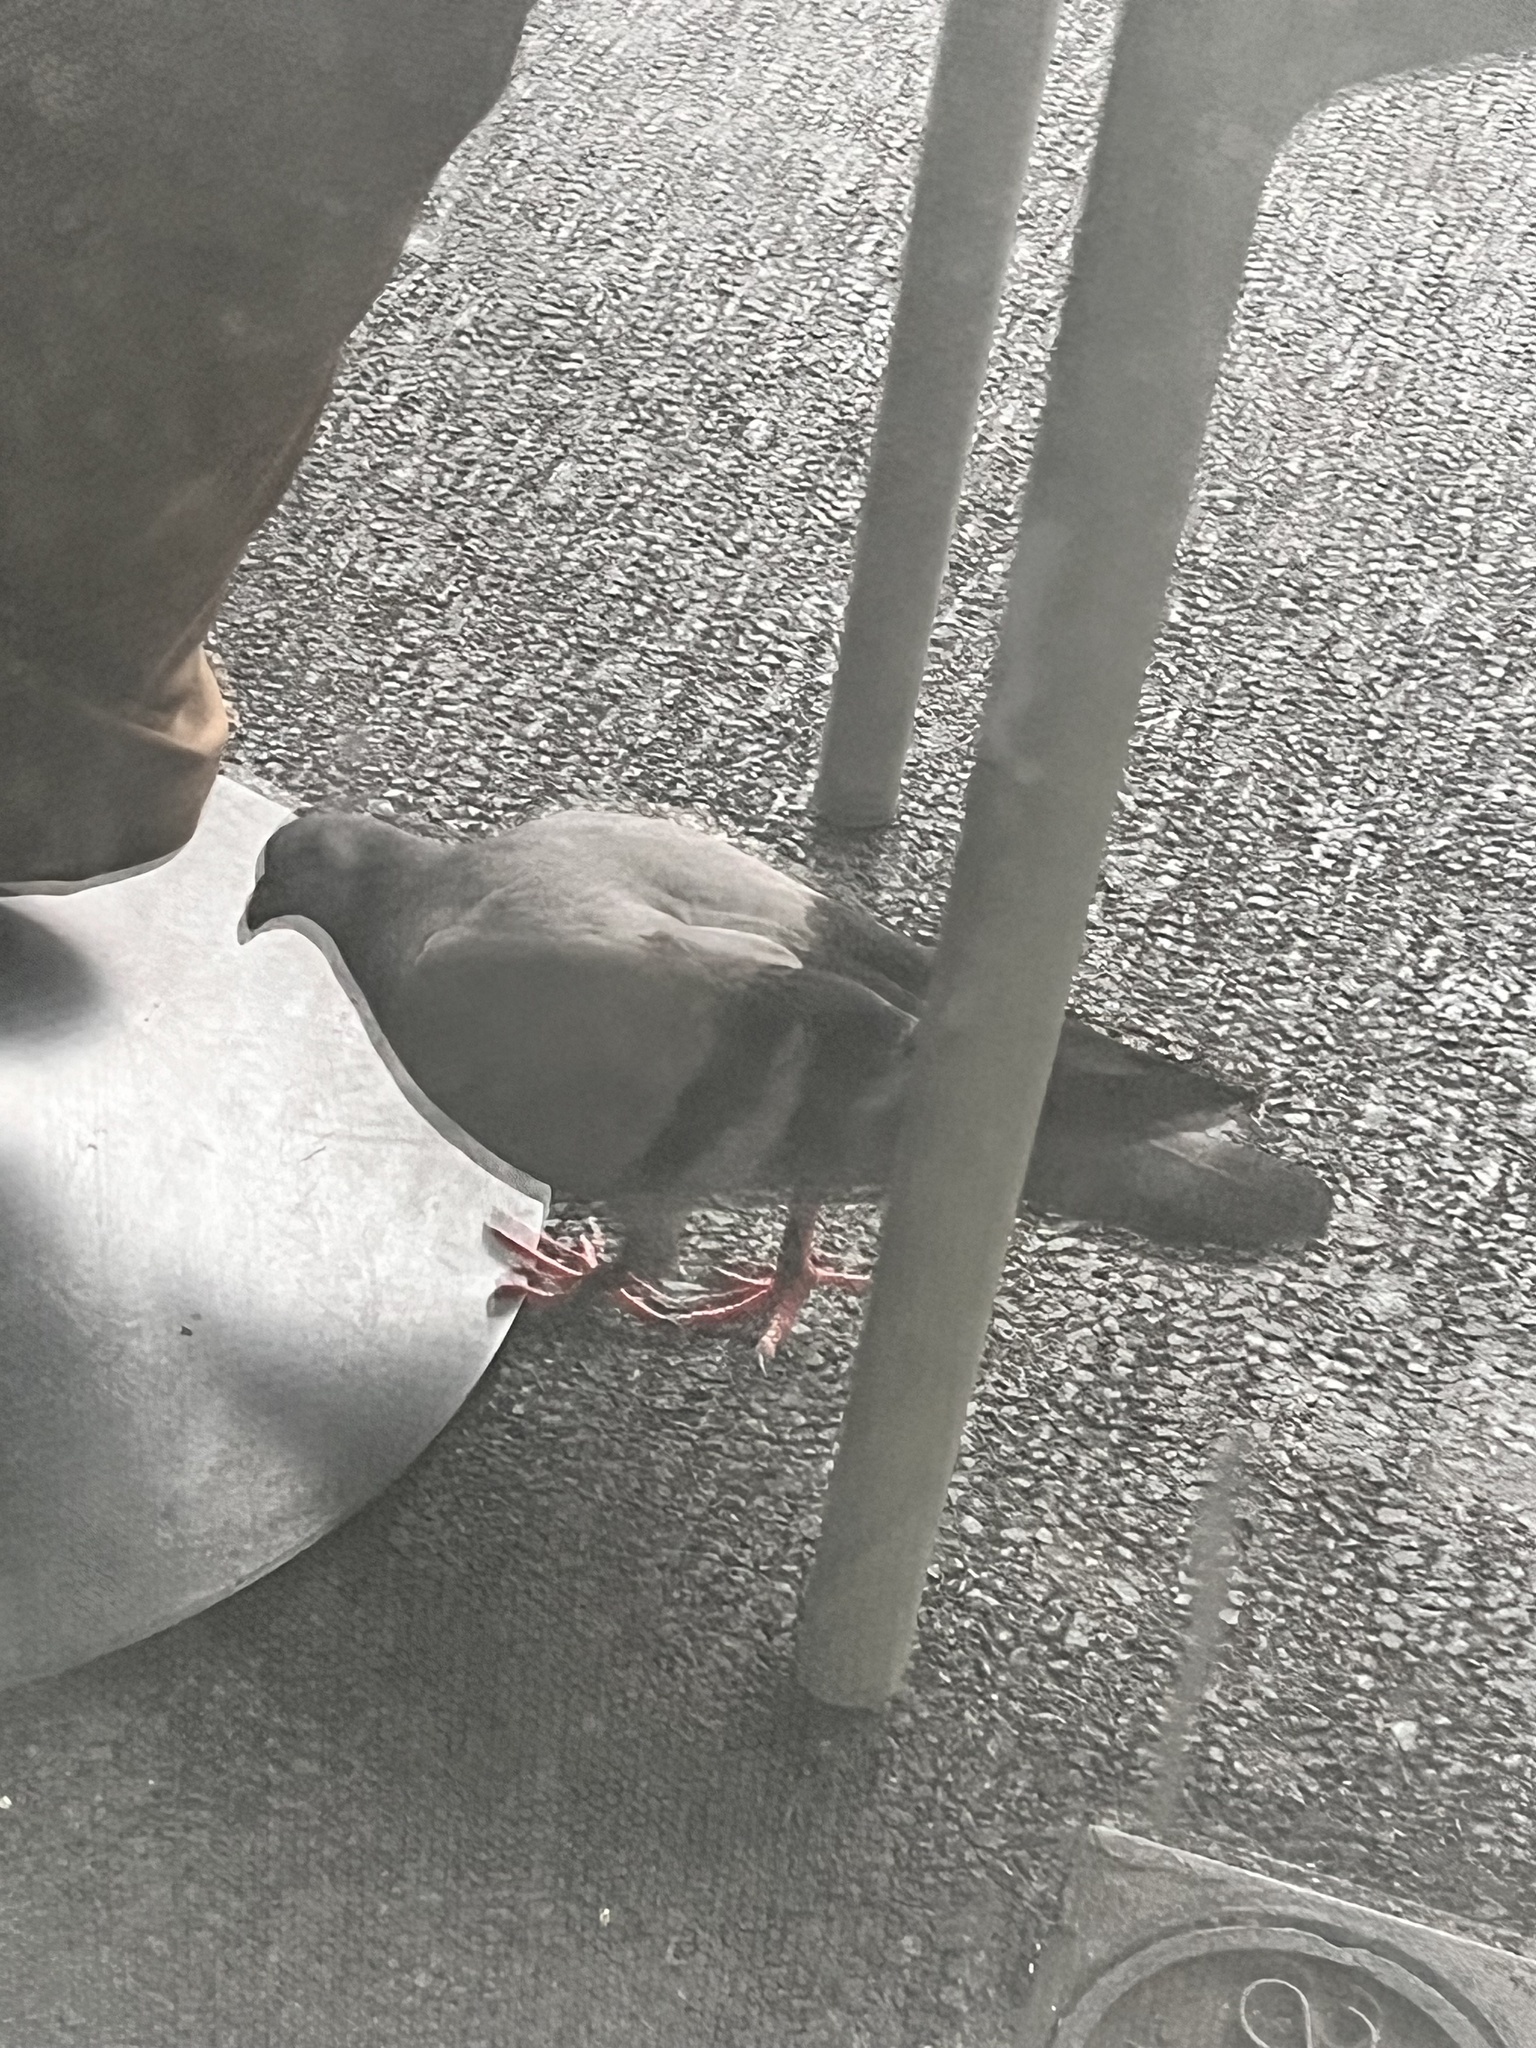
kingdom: Animalia
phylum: Chordata
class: Aves
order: Columbiformes
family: Columbidae
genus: Columba
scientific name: Columba livia
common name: Rock pigeon
